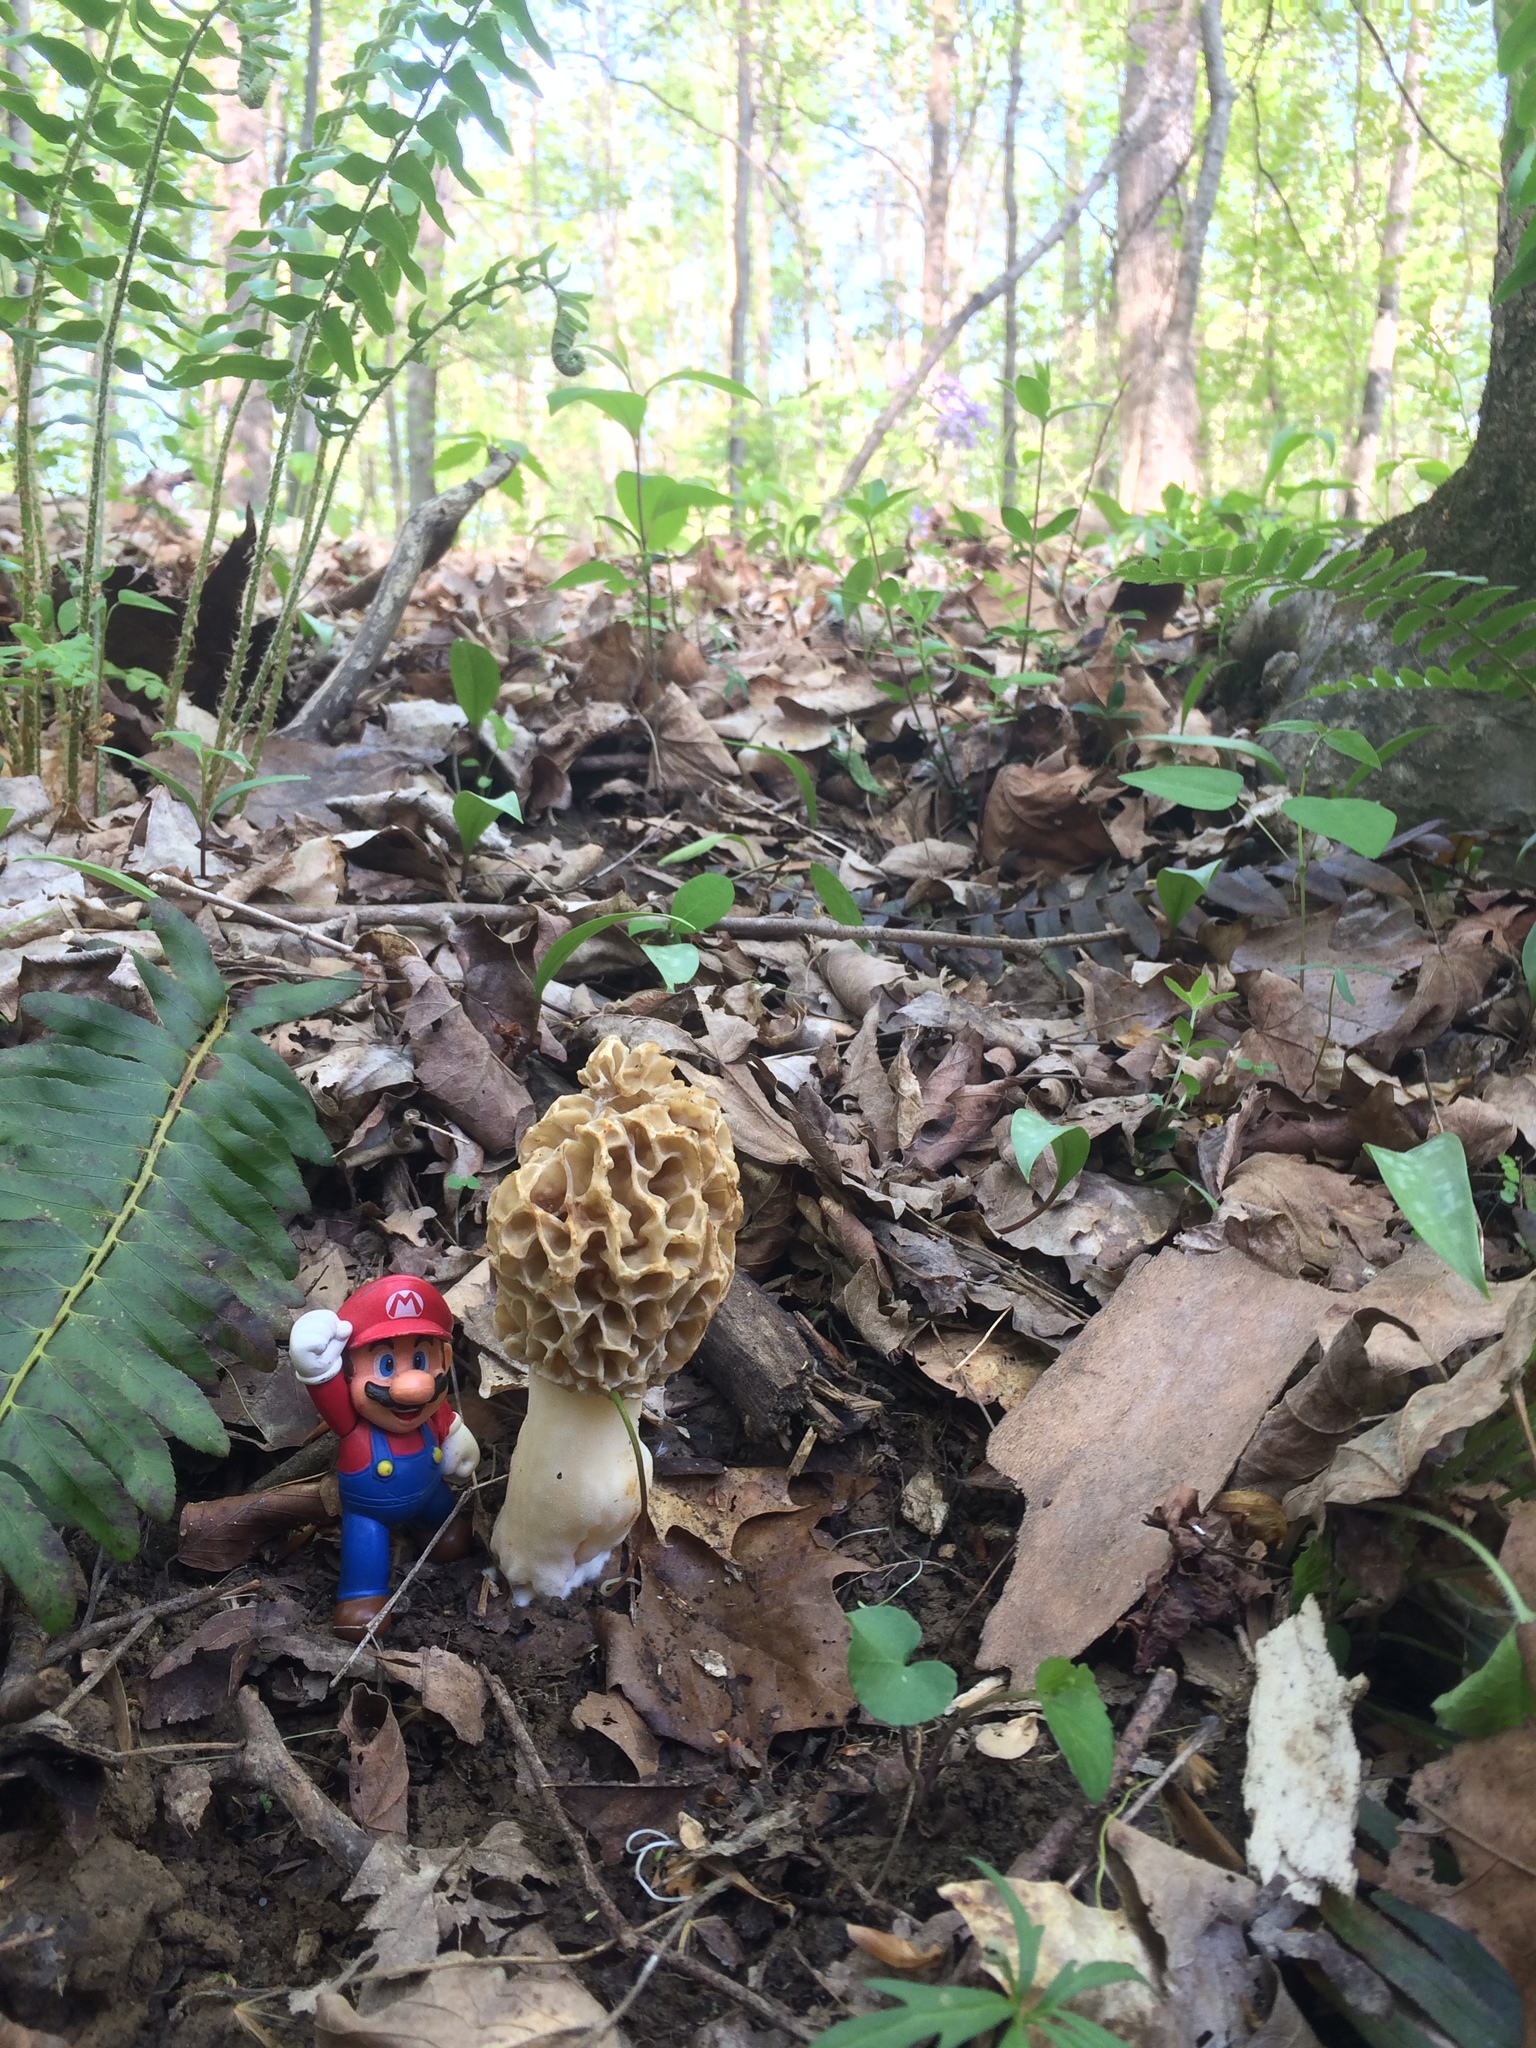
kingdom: Fungi
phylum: Ascomycota
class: Pezizomycetes
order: Pezizales
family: Morchellaceae
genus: Morchella
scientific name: Morchella americana
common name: White morel
